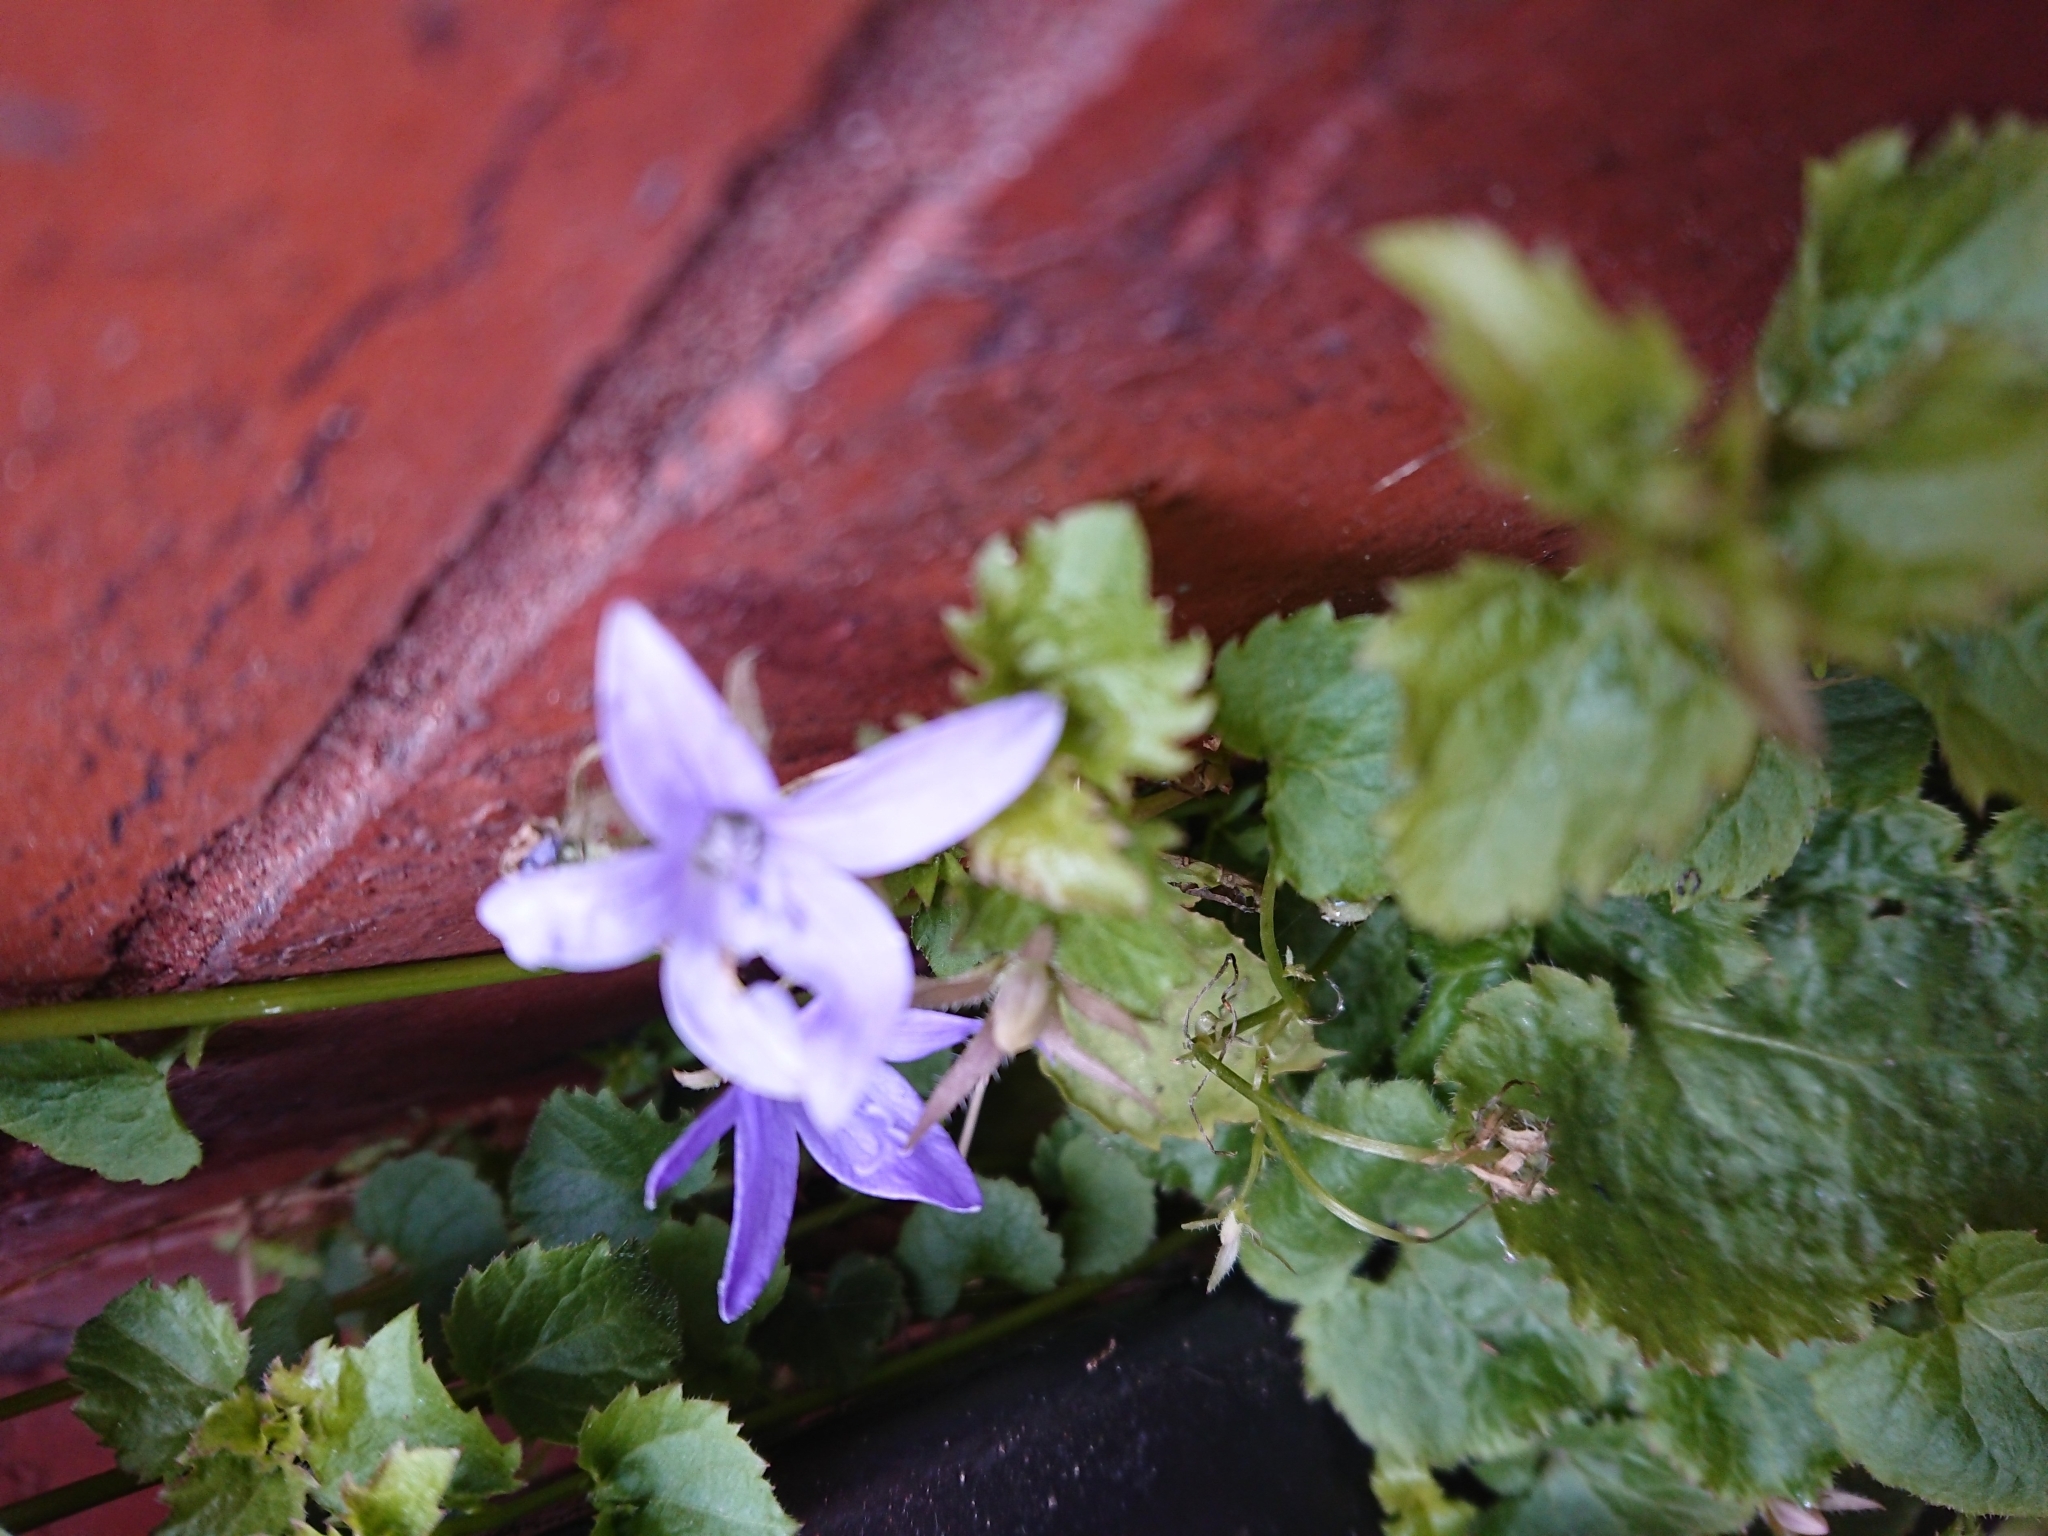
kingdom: Plantae
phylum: Tracheophyta
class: Magnoliopsida
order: Asterales
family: Campanulaceae
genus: Campanula
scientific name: Campanula poscharskyana
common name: Trailing bellflower
